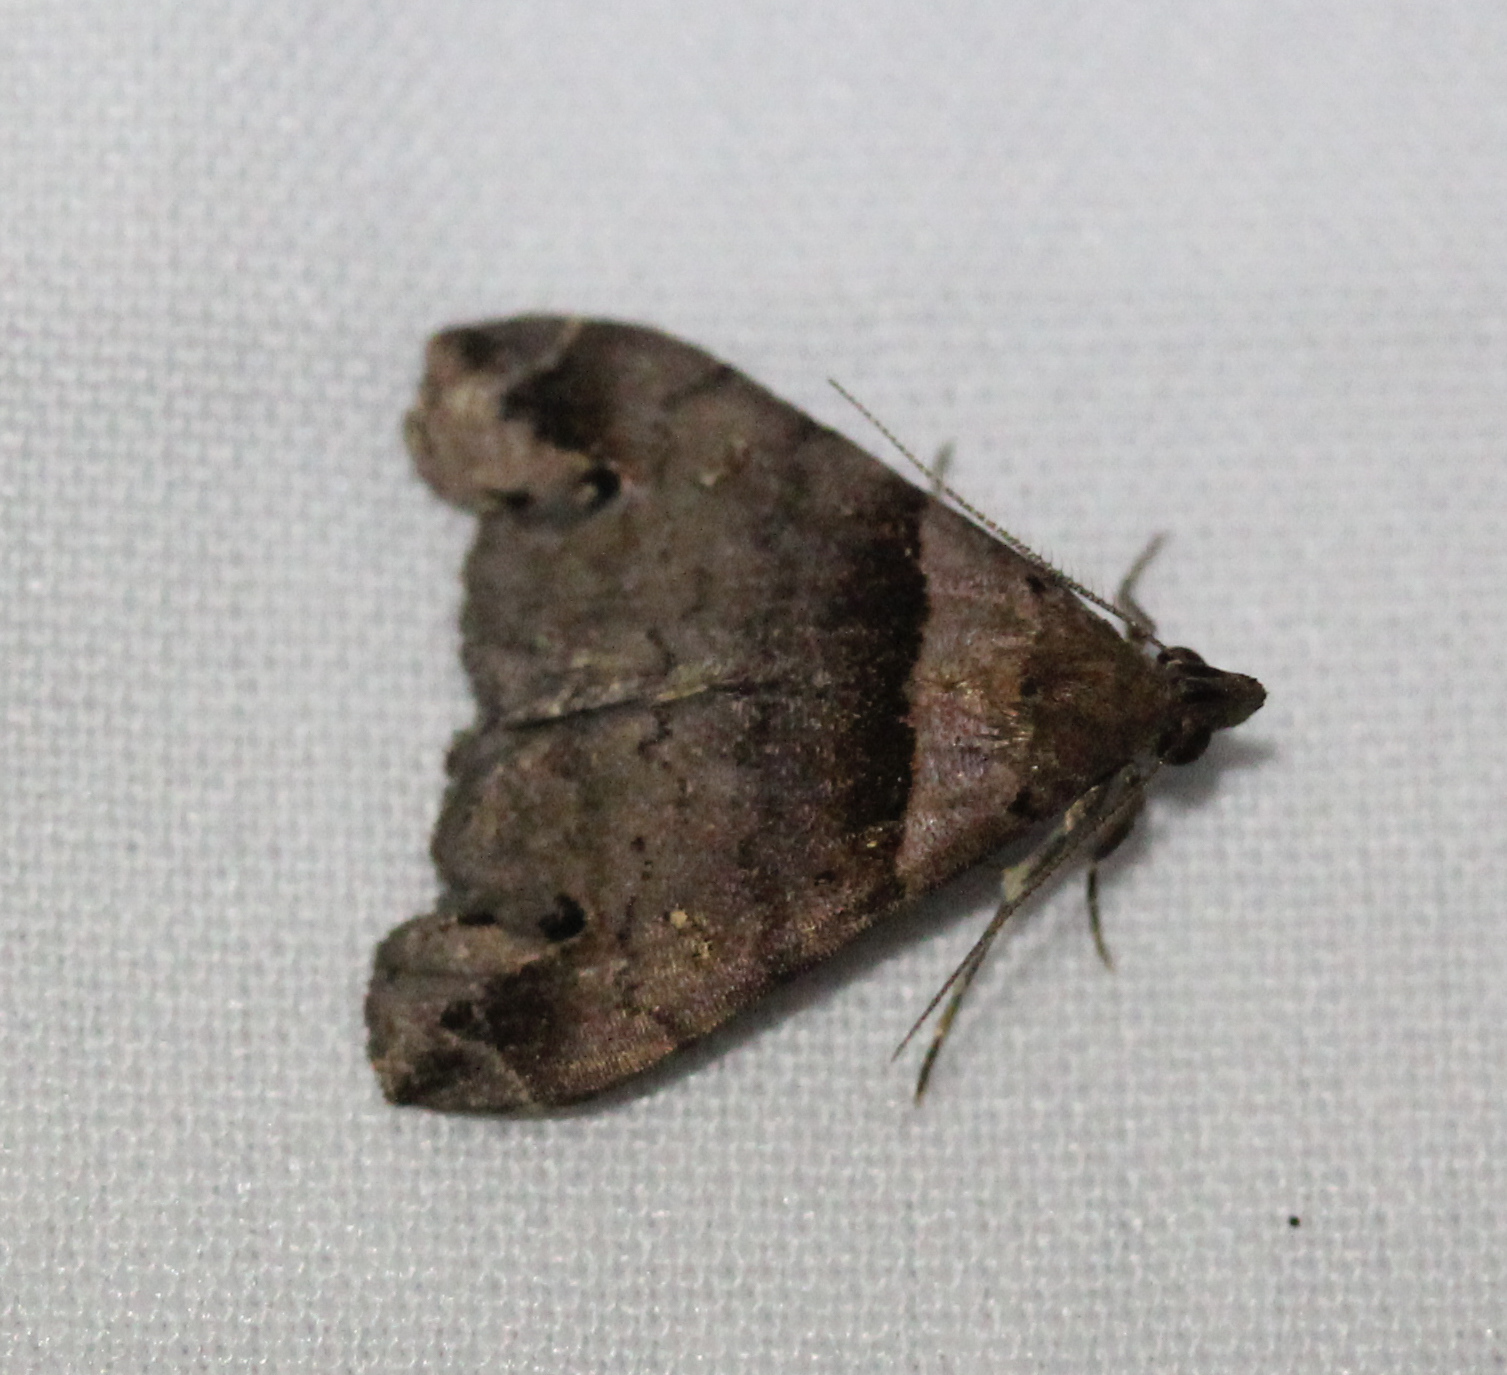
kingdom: Animalia
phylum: Arthropoda
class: Insecta
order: Lepidoptera
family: Erebidae
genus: Lascoria
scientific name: Lascoria ambigualis
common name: Ambiguous moth
